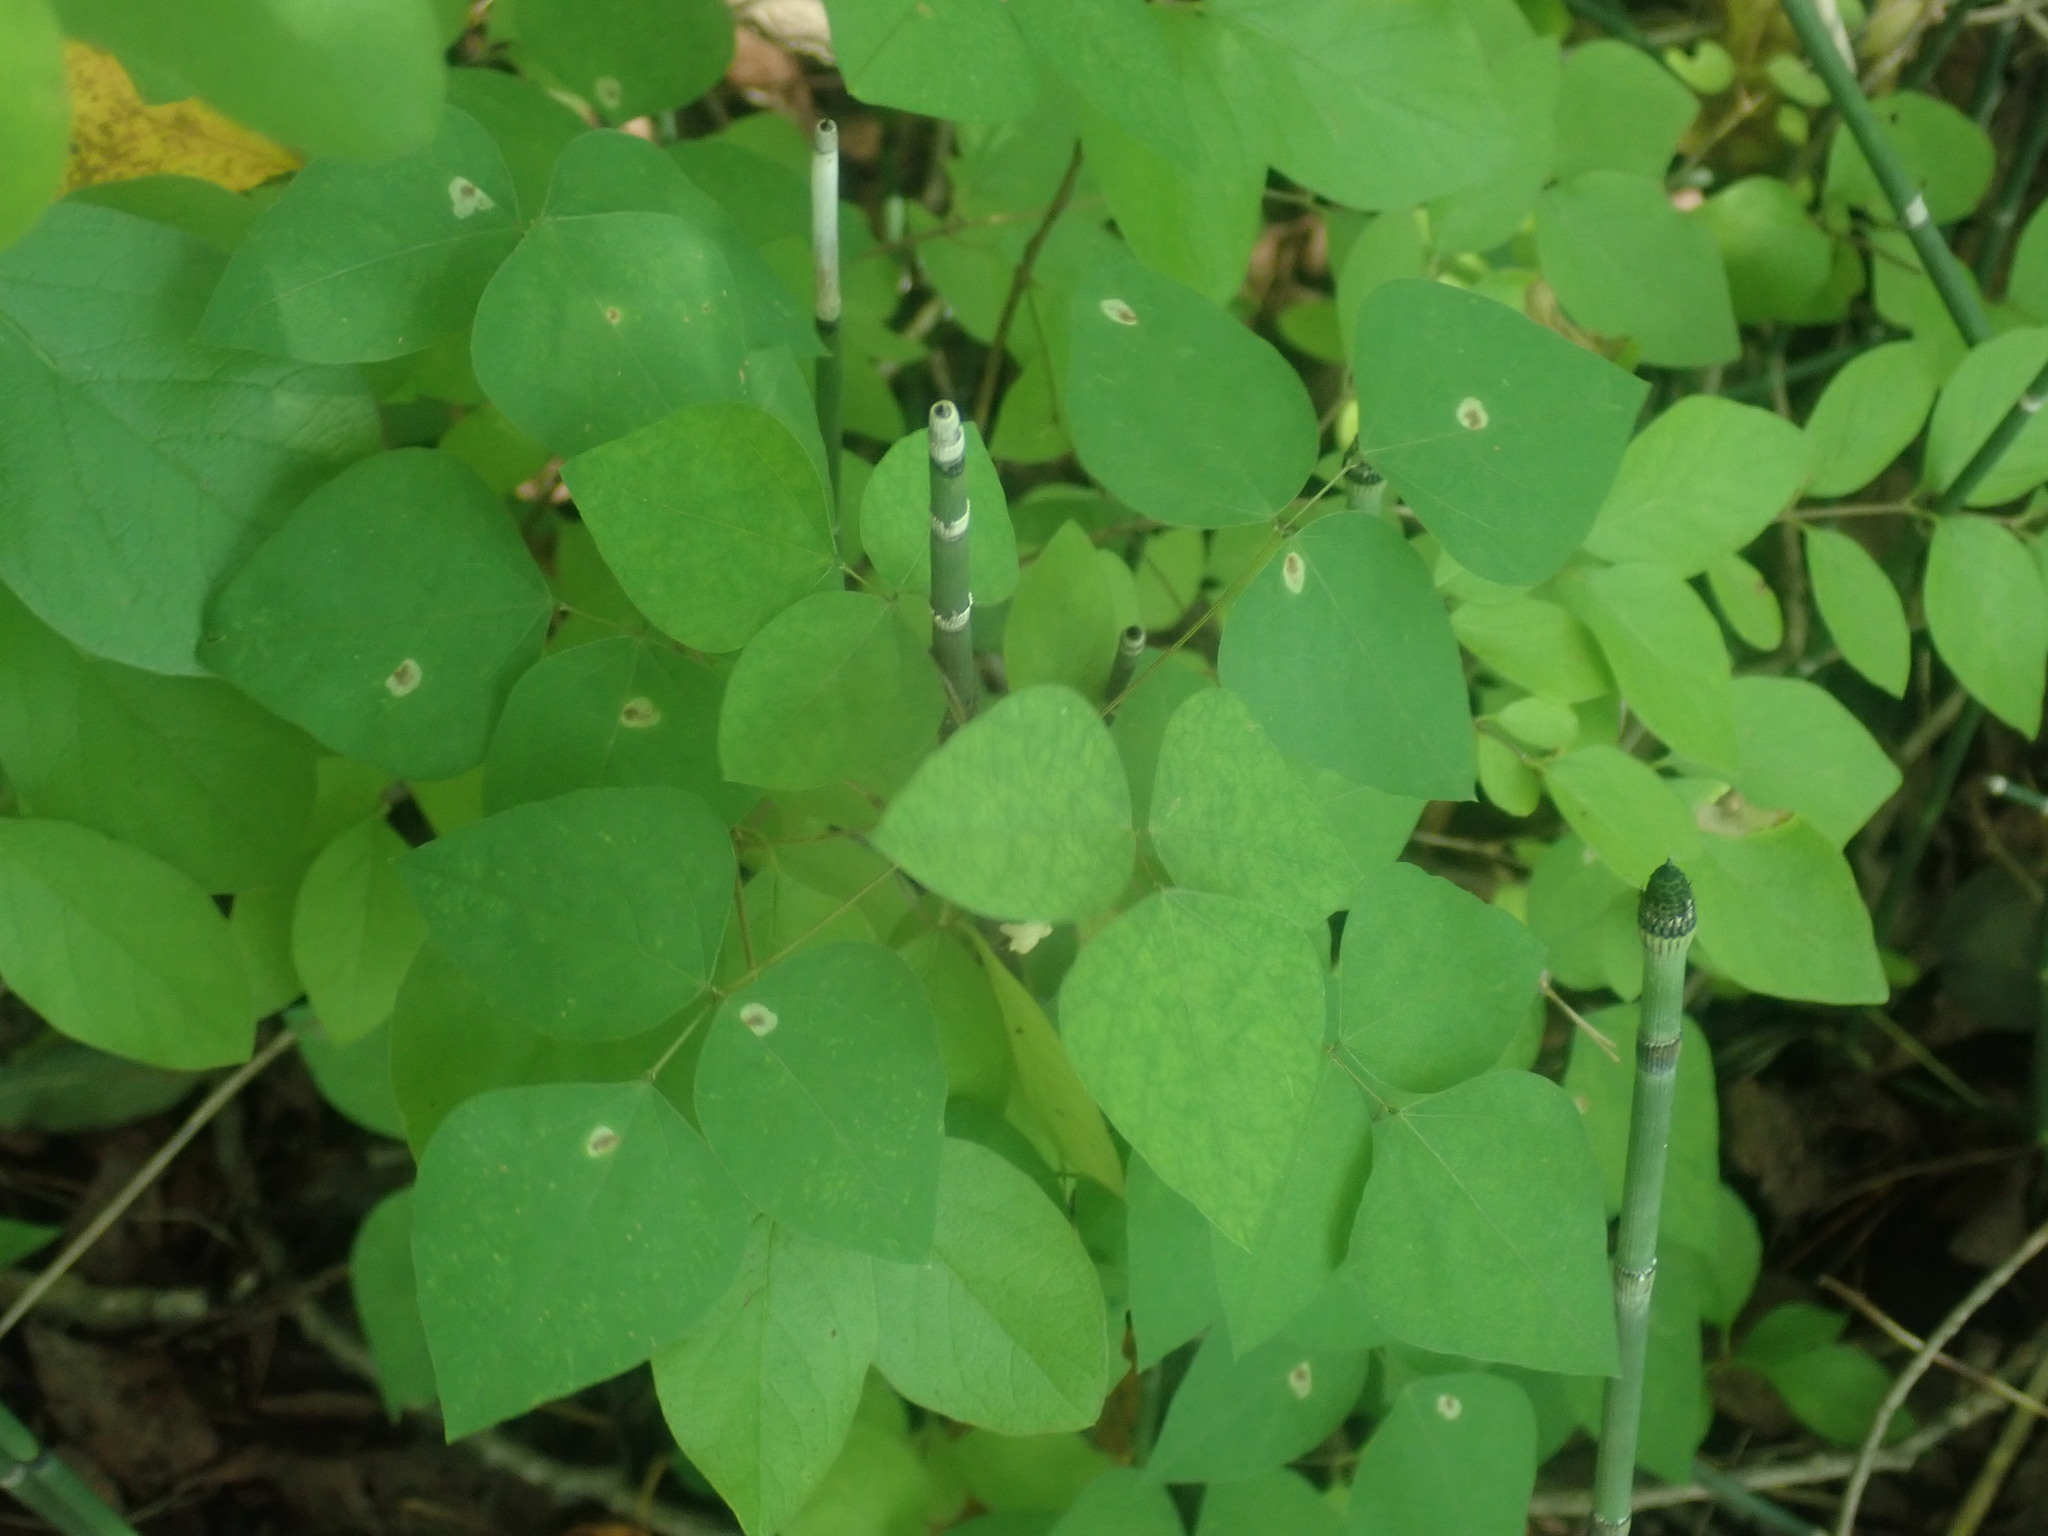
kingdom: Plantae
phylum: Tracheophyta
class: Magnoliopsida
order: Fabales
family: Fabaceae
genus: Amphicarpaea
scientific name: Amphicarpaea bracteata
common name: American hog peanut
